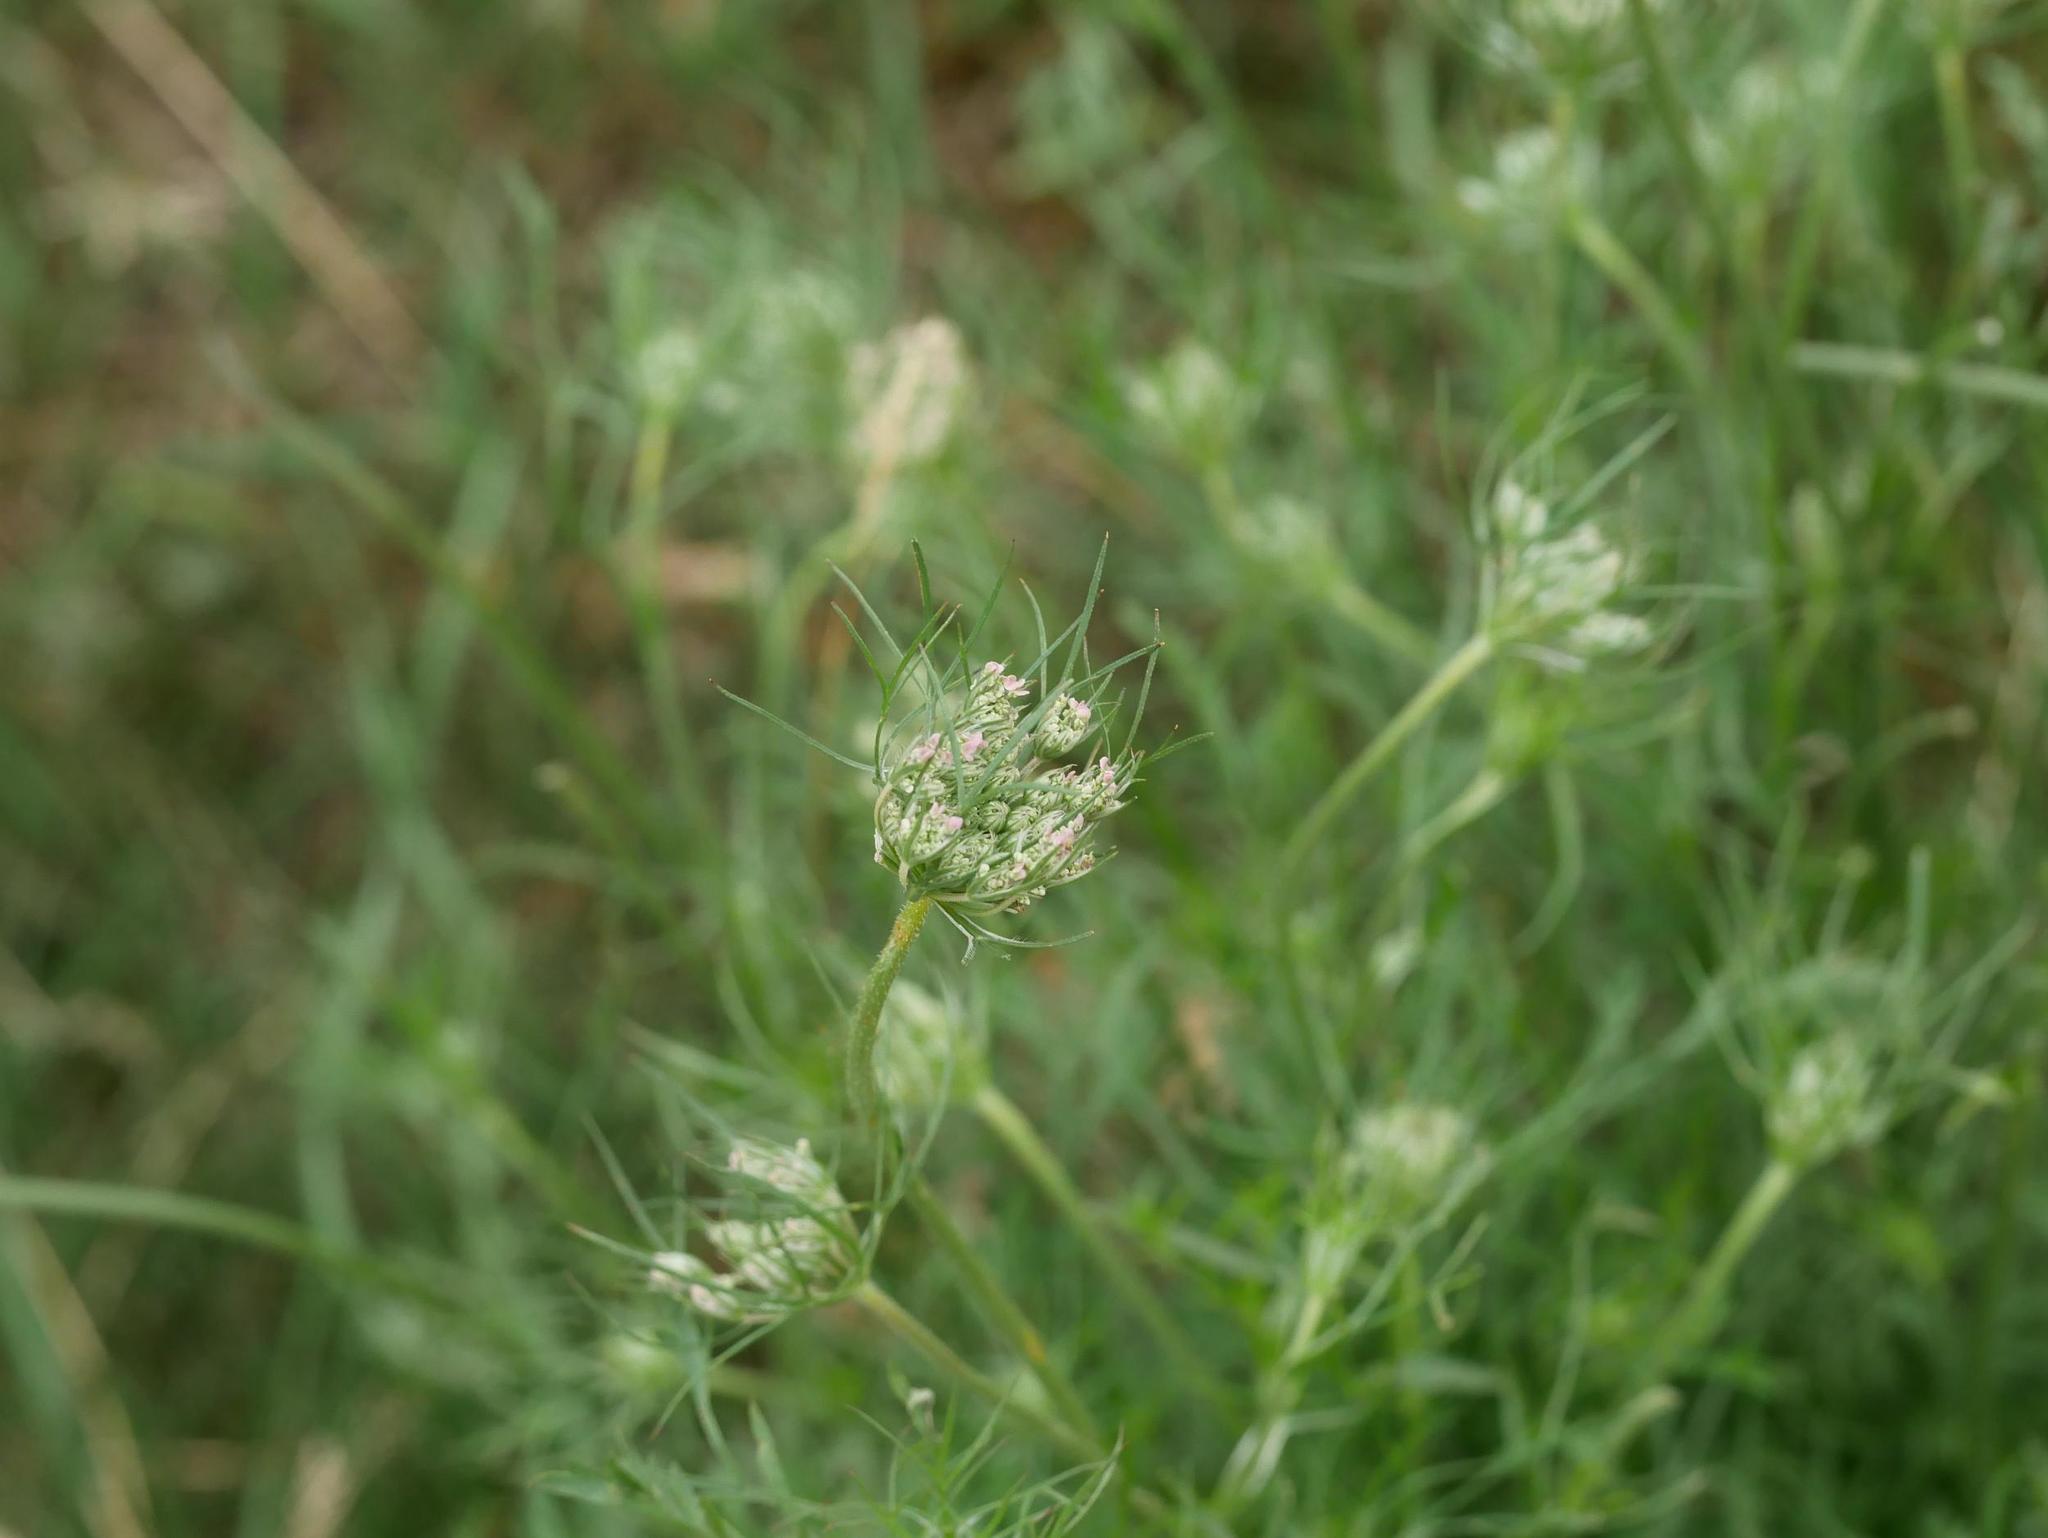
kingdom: Plantae
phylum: Tracheophyta
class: Magnoliopsida
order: Apiales
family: Apiaceae
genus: Daucus
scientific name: Daucus carota
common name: Wild carrot
